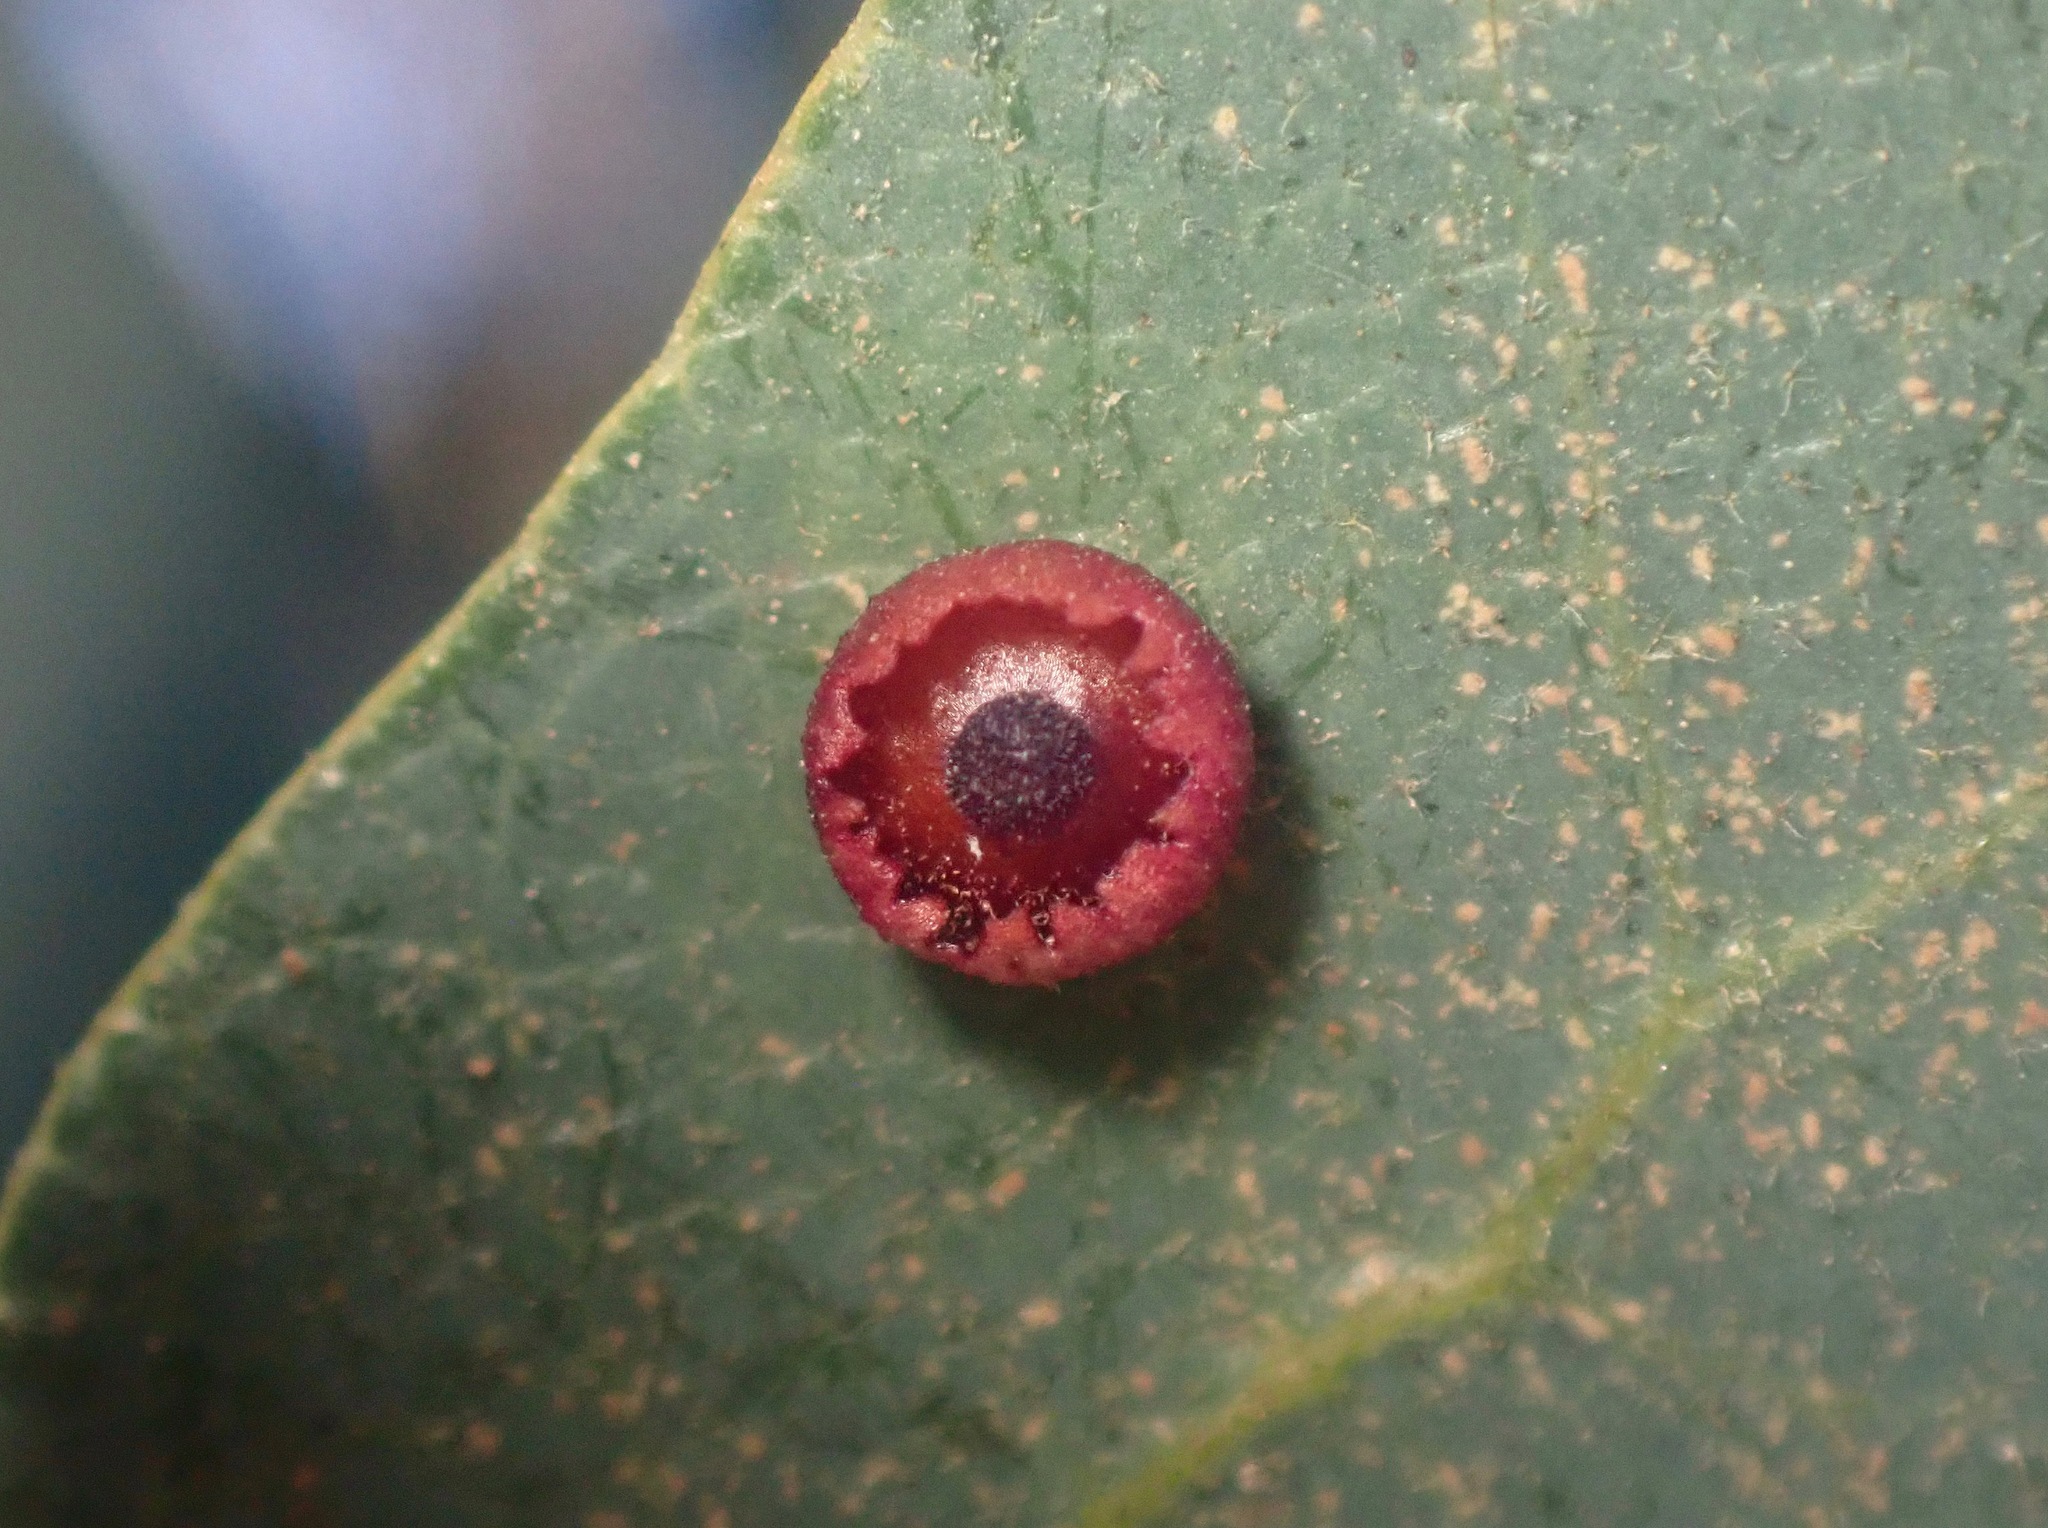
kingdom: Animalia
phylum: Arthropoda
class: Insecta
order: Hymenoptera
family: Cynipidae
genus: Andricus
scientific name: Andricus
